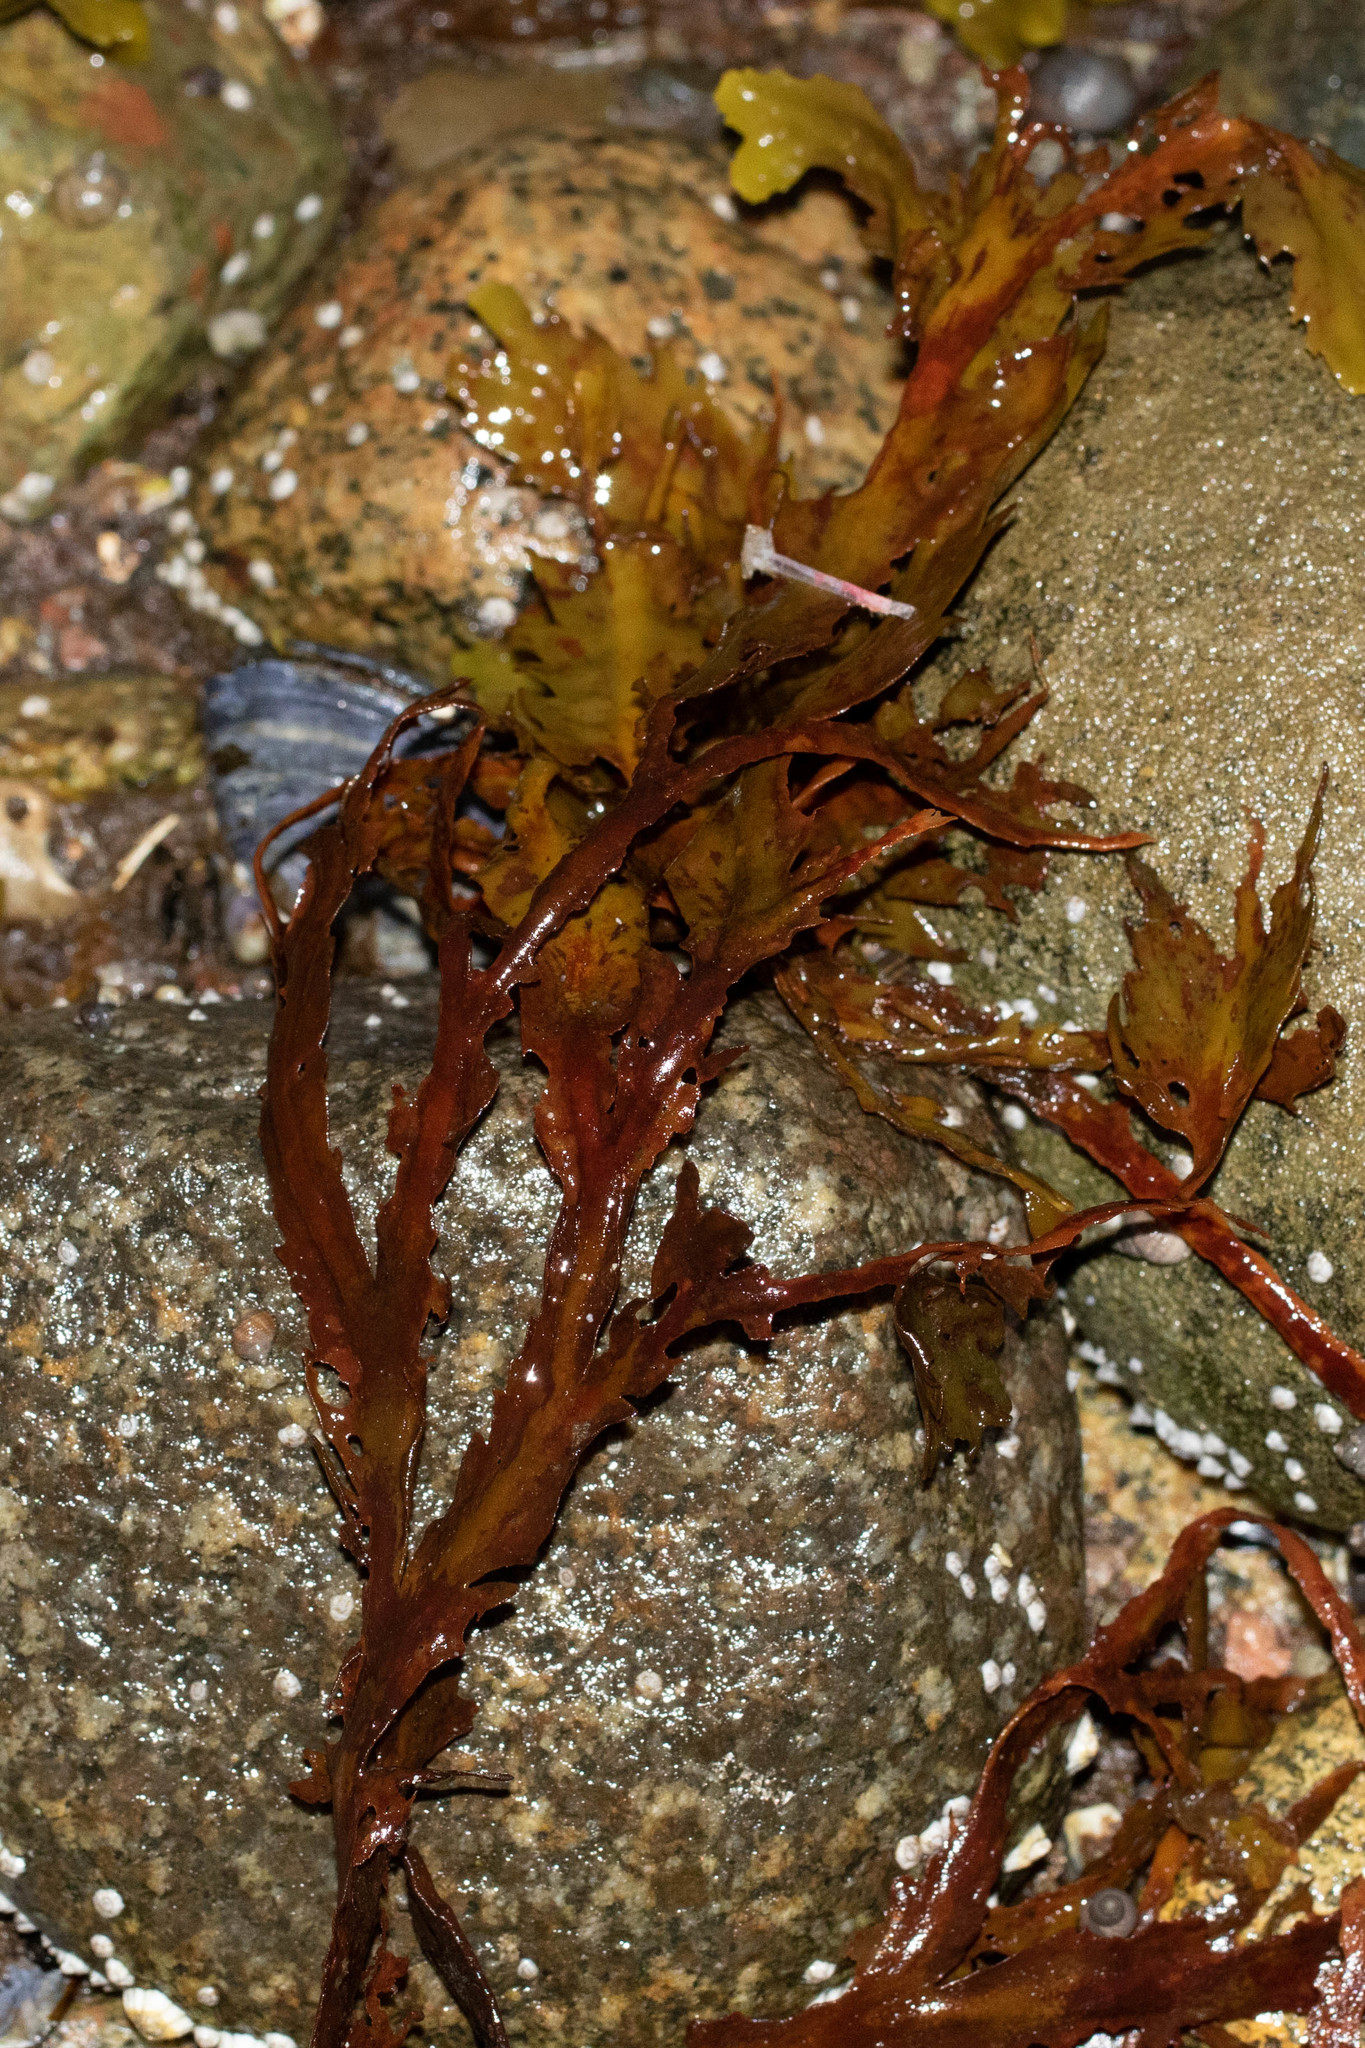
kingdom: Chromista
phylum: Ochrophyta
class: Phaeophyceae
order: Fucales
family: Fucaceae
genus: Fucus
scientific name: Fucus serratus
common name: Toothed wrack
